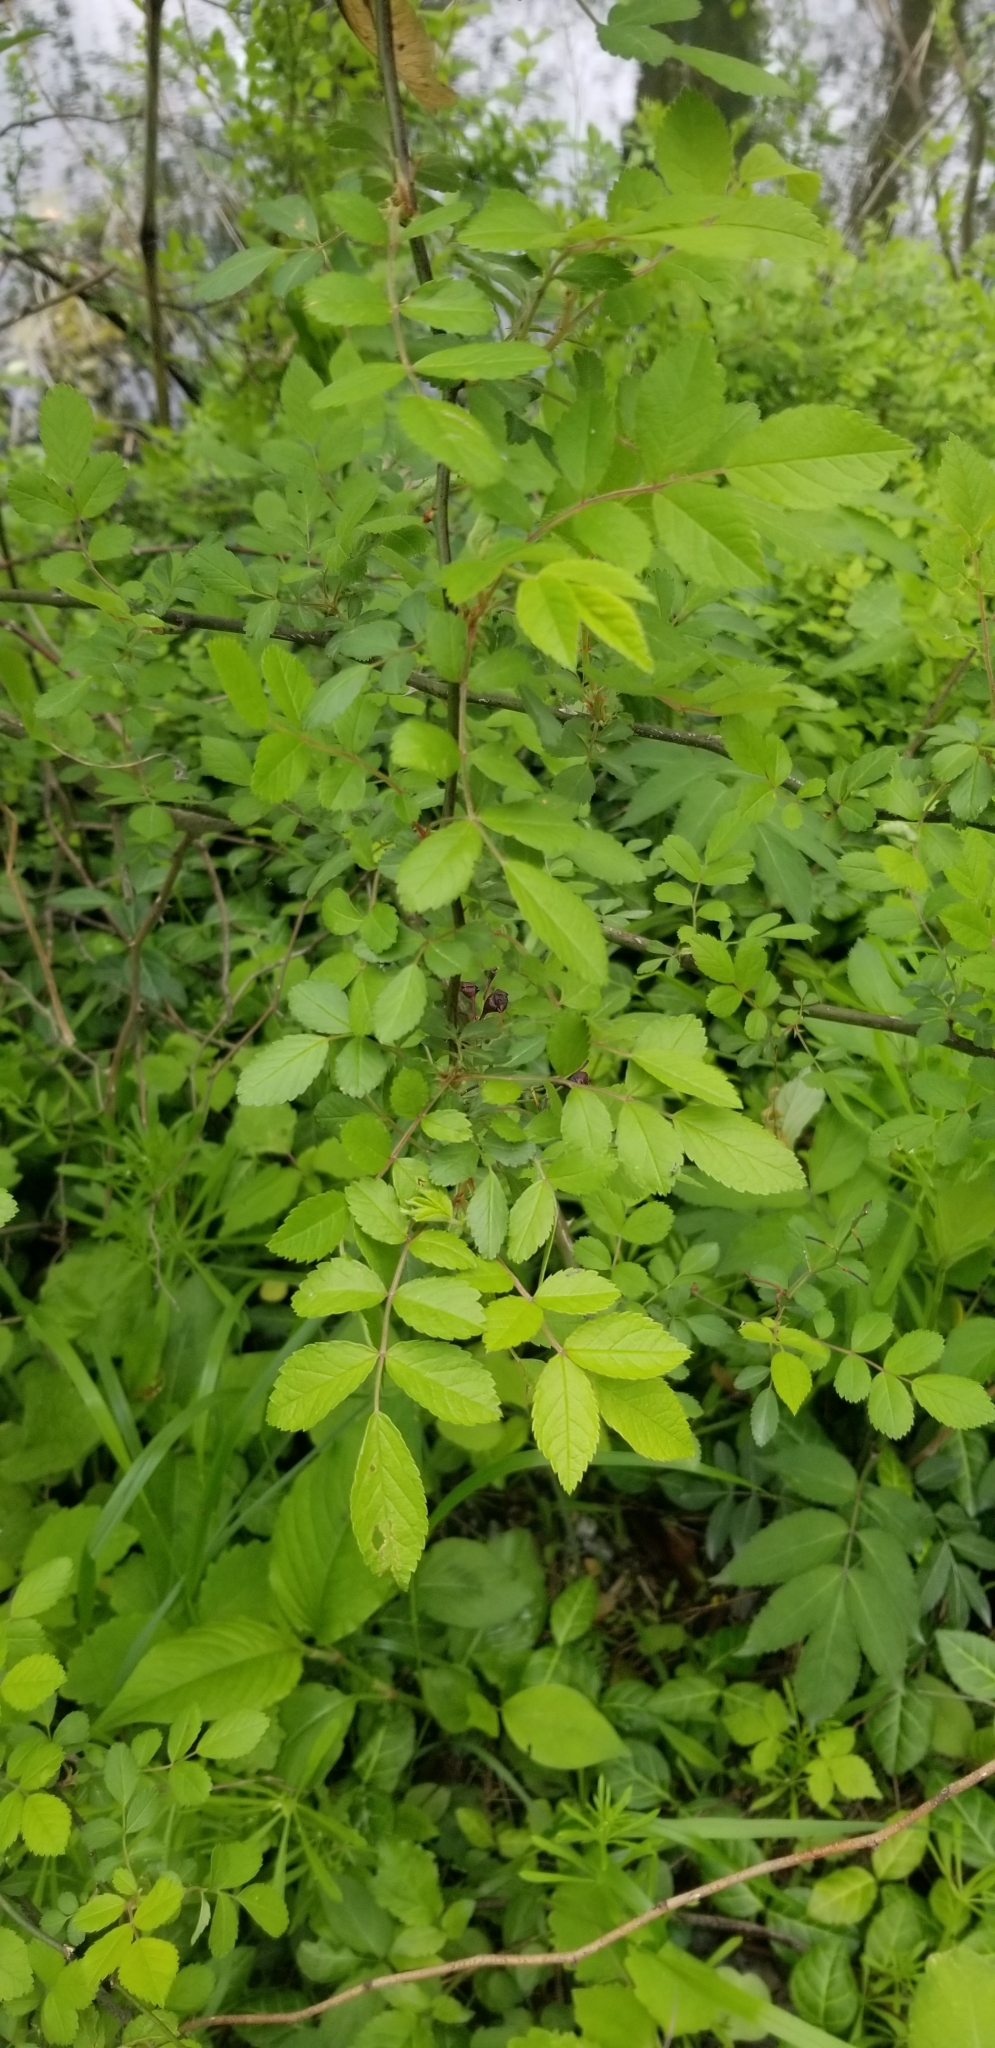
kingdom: Plantae
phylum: Tracheophyta
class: Magnoliopsida
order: Rosales
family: Rosaceae
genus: Rosa
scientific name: Rosa multiflora
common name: Multiflora rose
